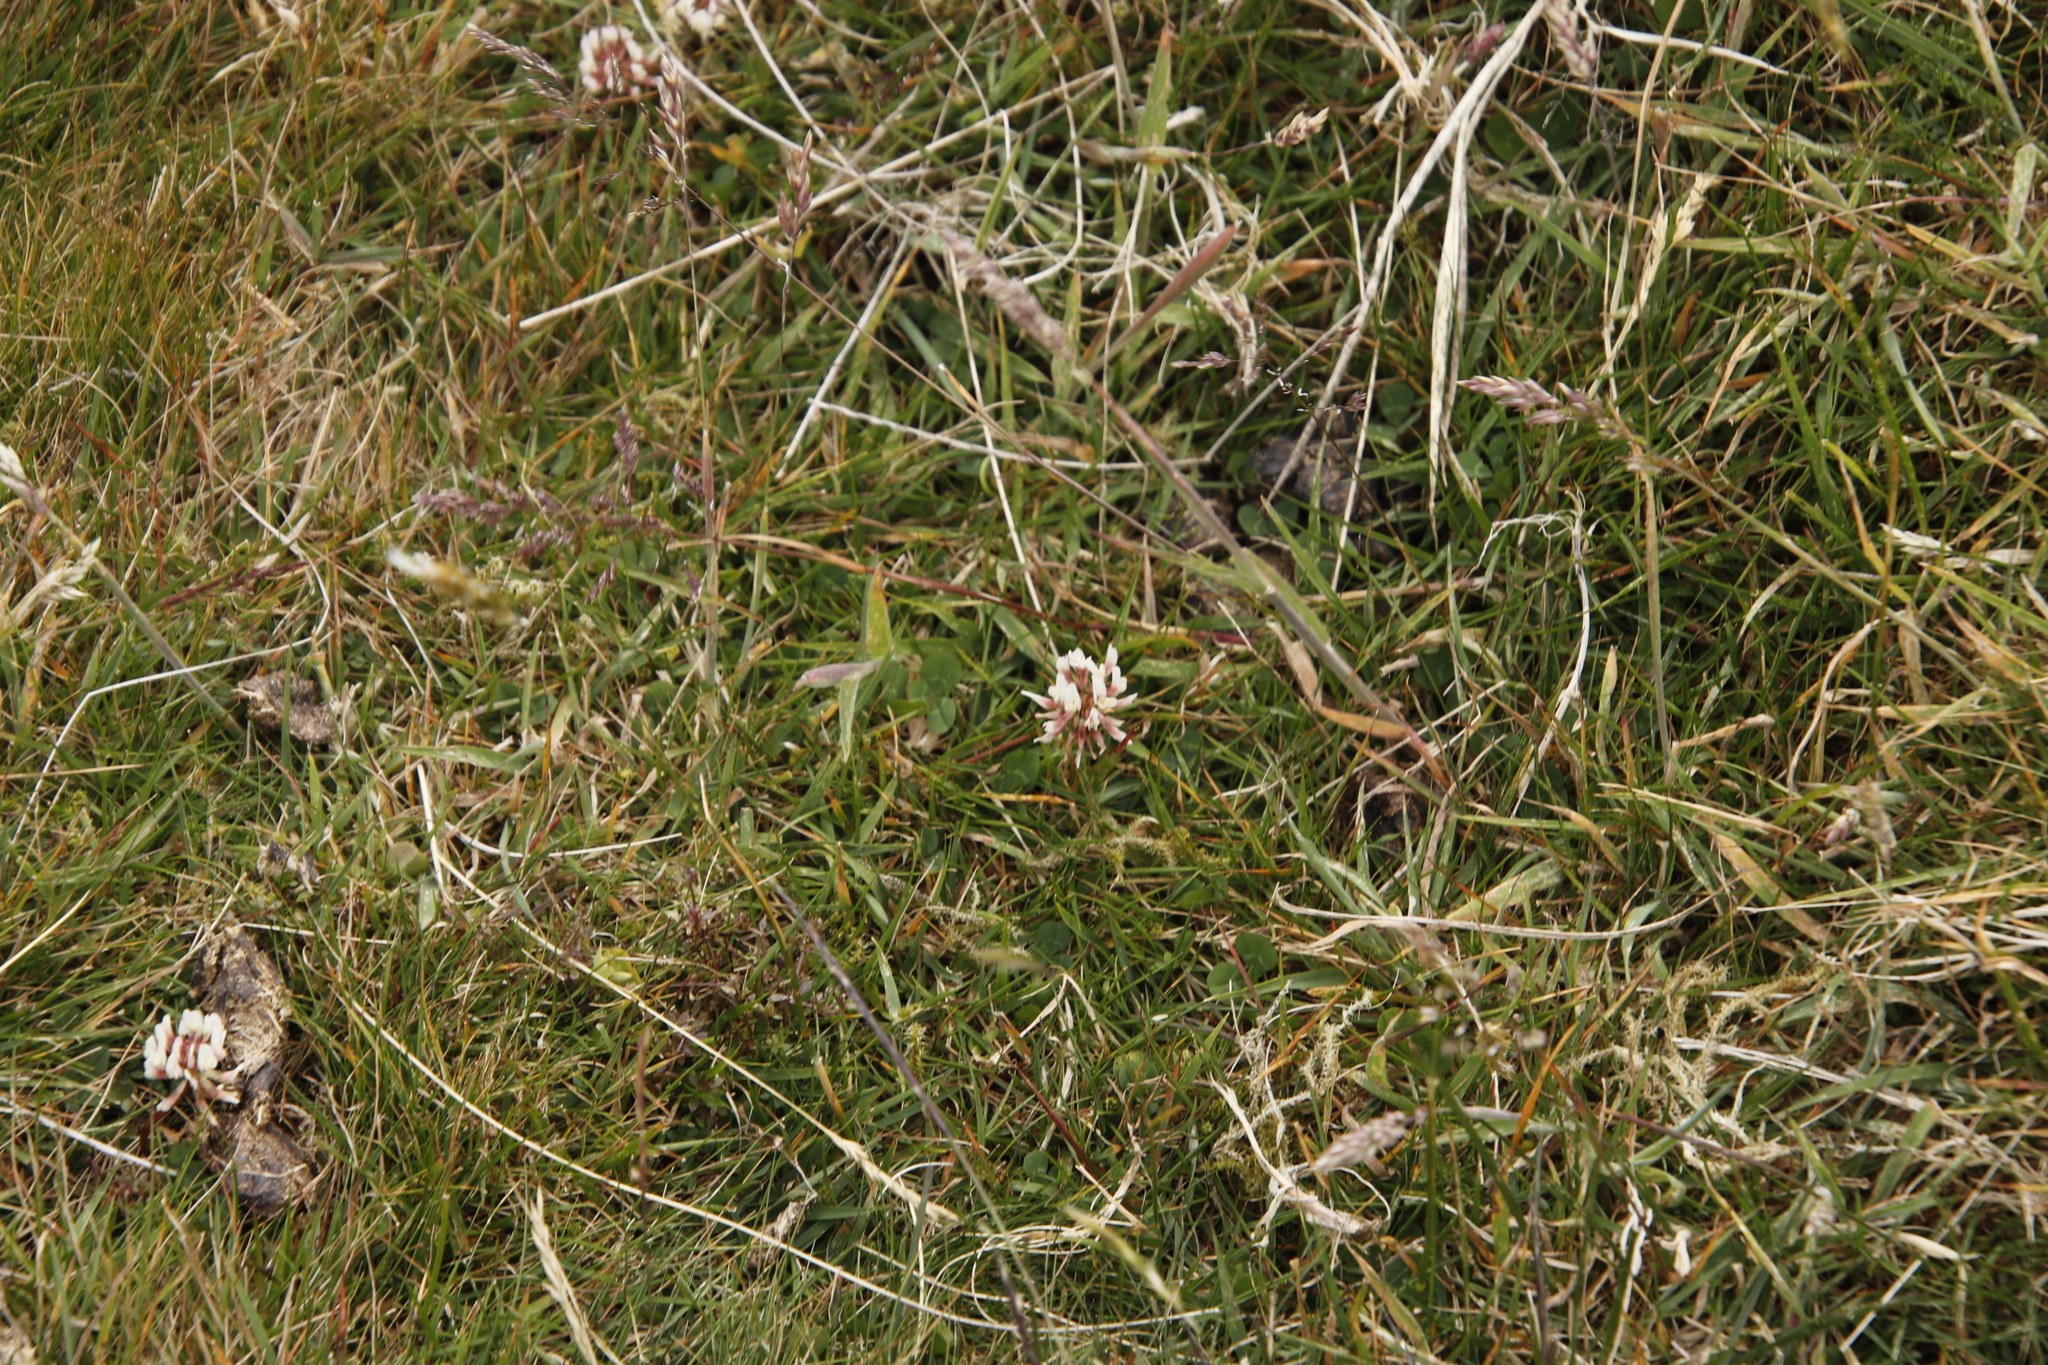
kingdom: Plantae
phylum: Tracheophyta
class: Magnoliopsida
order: Fabales
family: Fabaceae
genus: Trifolium
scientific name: Trifolium repens
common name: White clover
